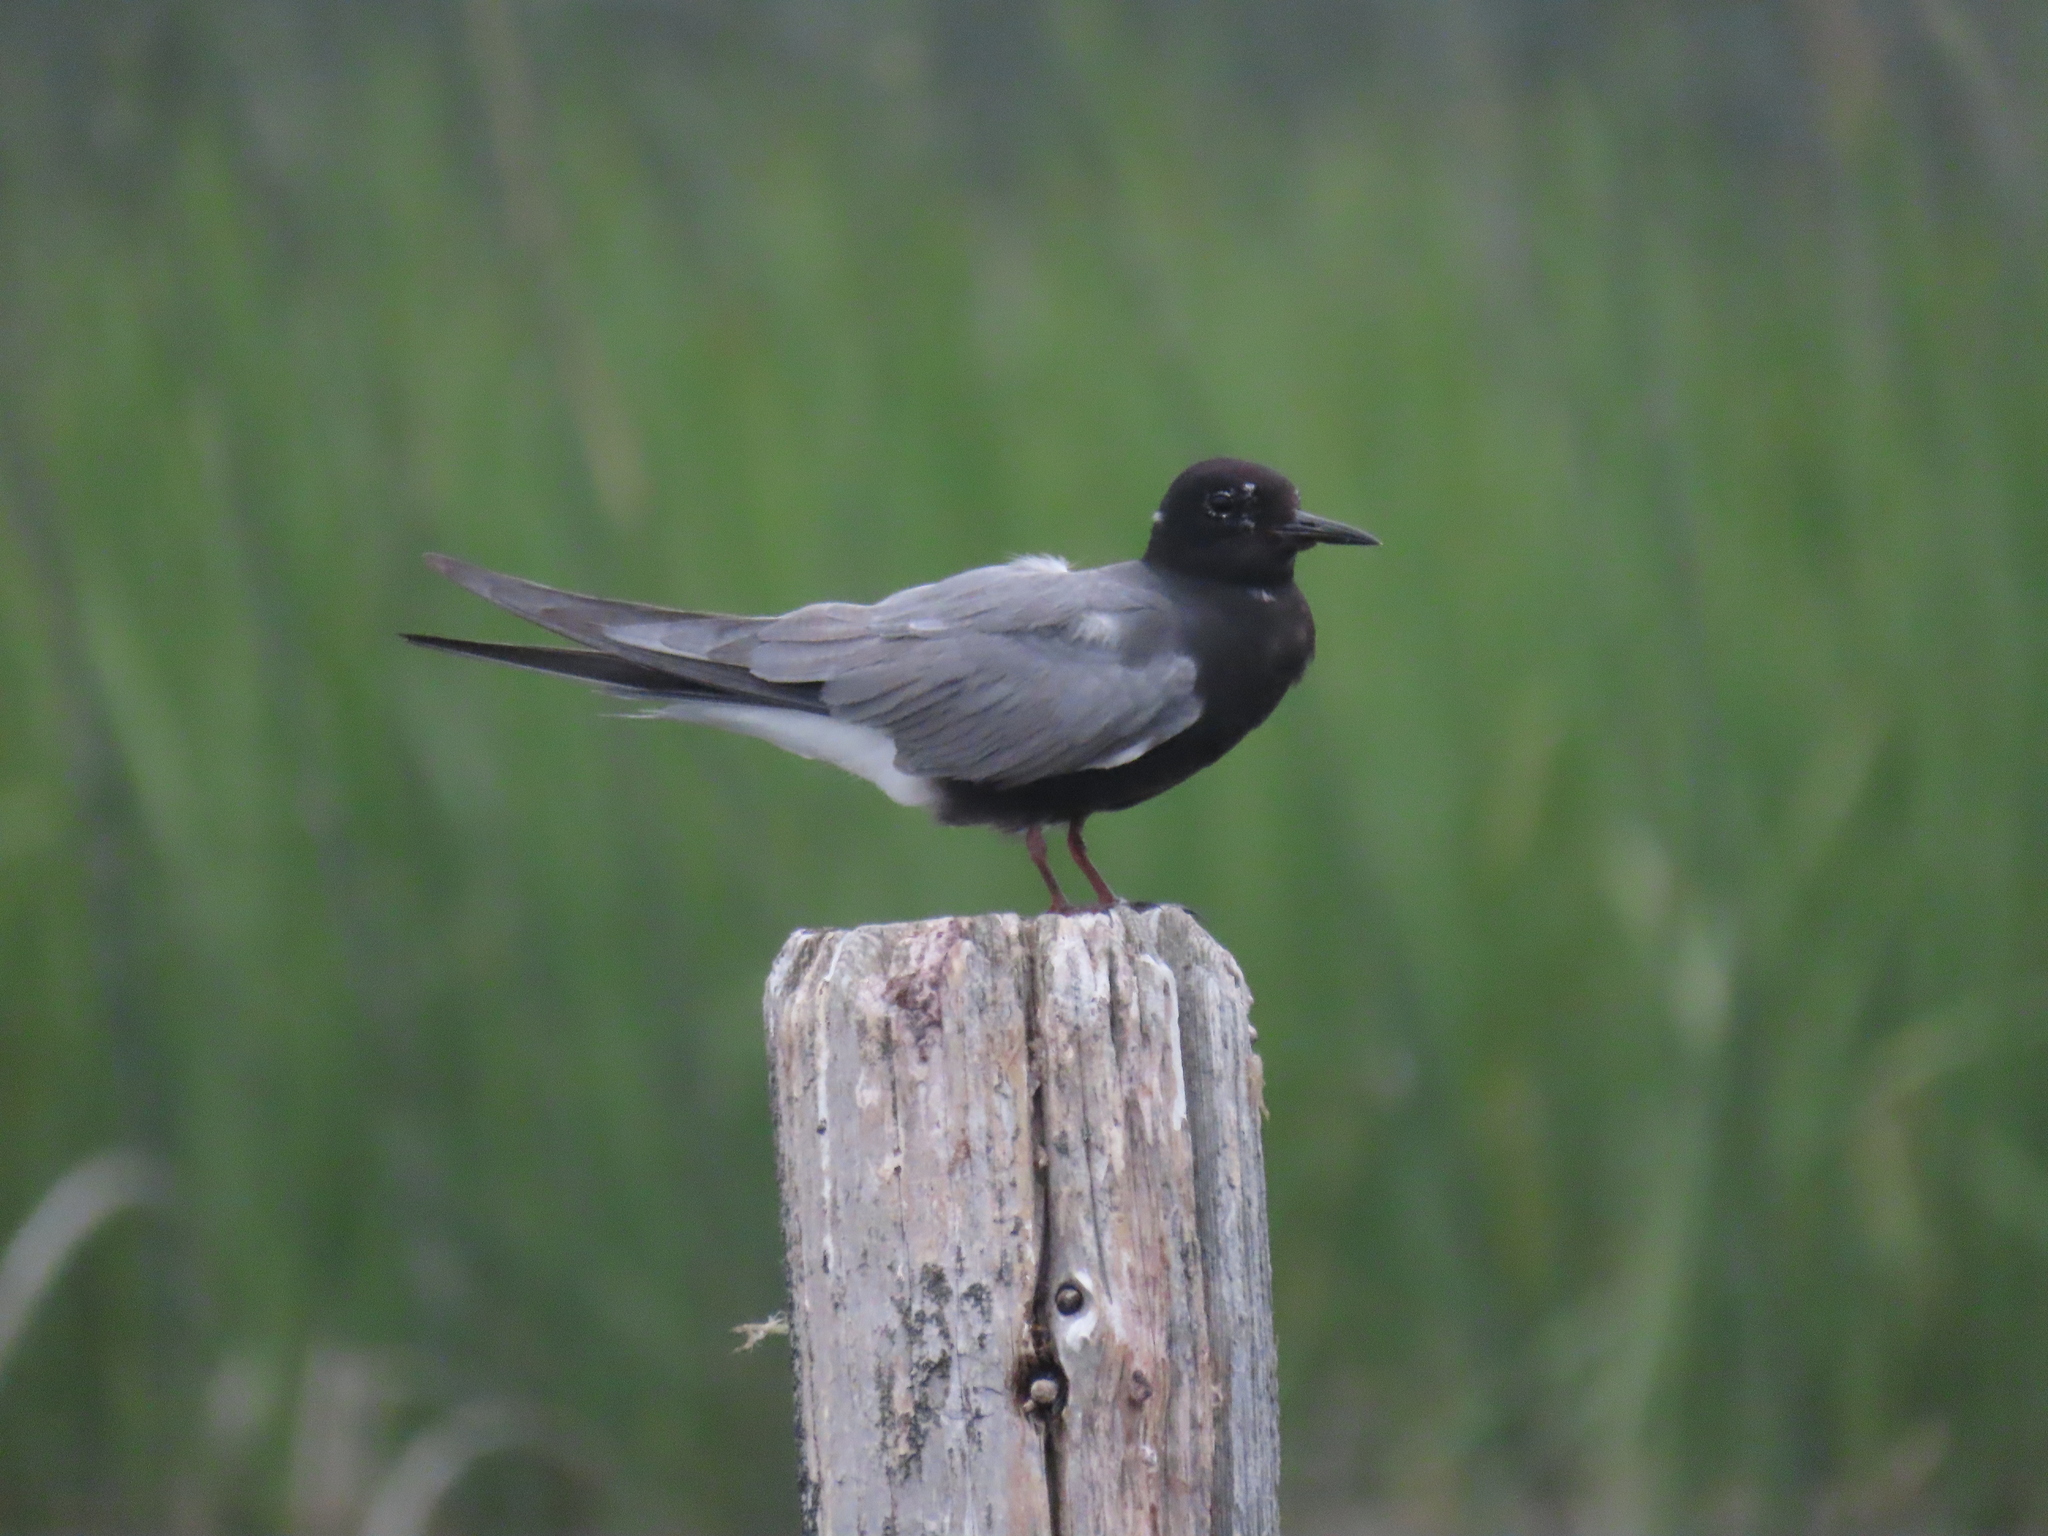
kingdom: Animalia
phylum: Chordata
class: Aves
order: Charadriiformes
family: Laridae
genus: Chlidonias
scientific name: Chlidonias niger
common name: Black tern
